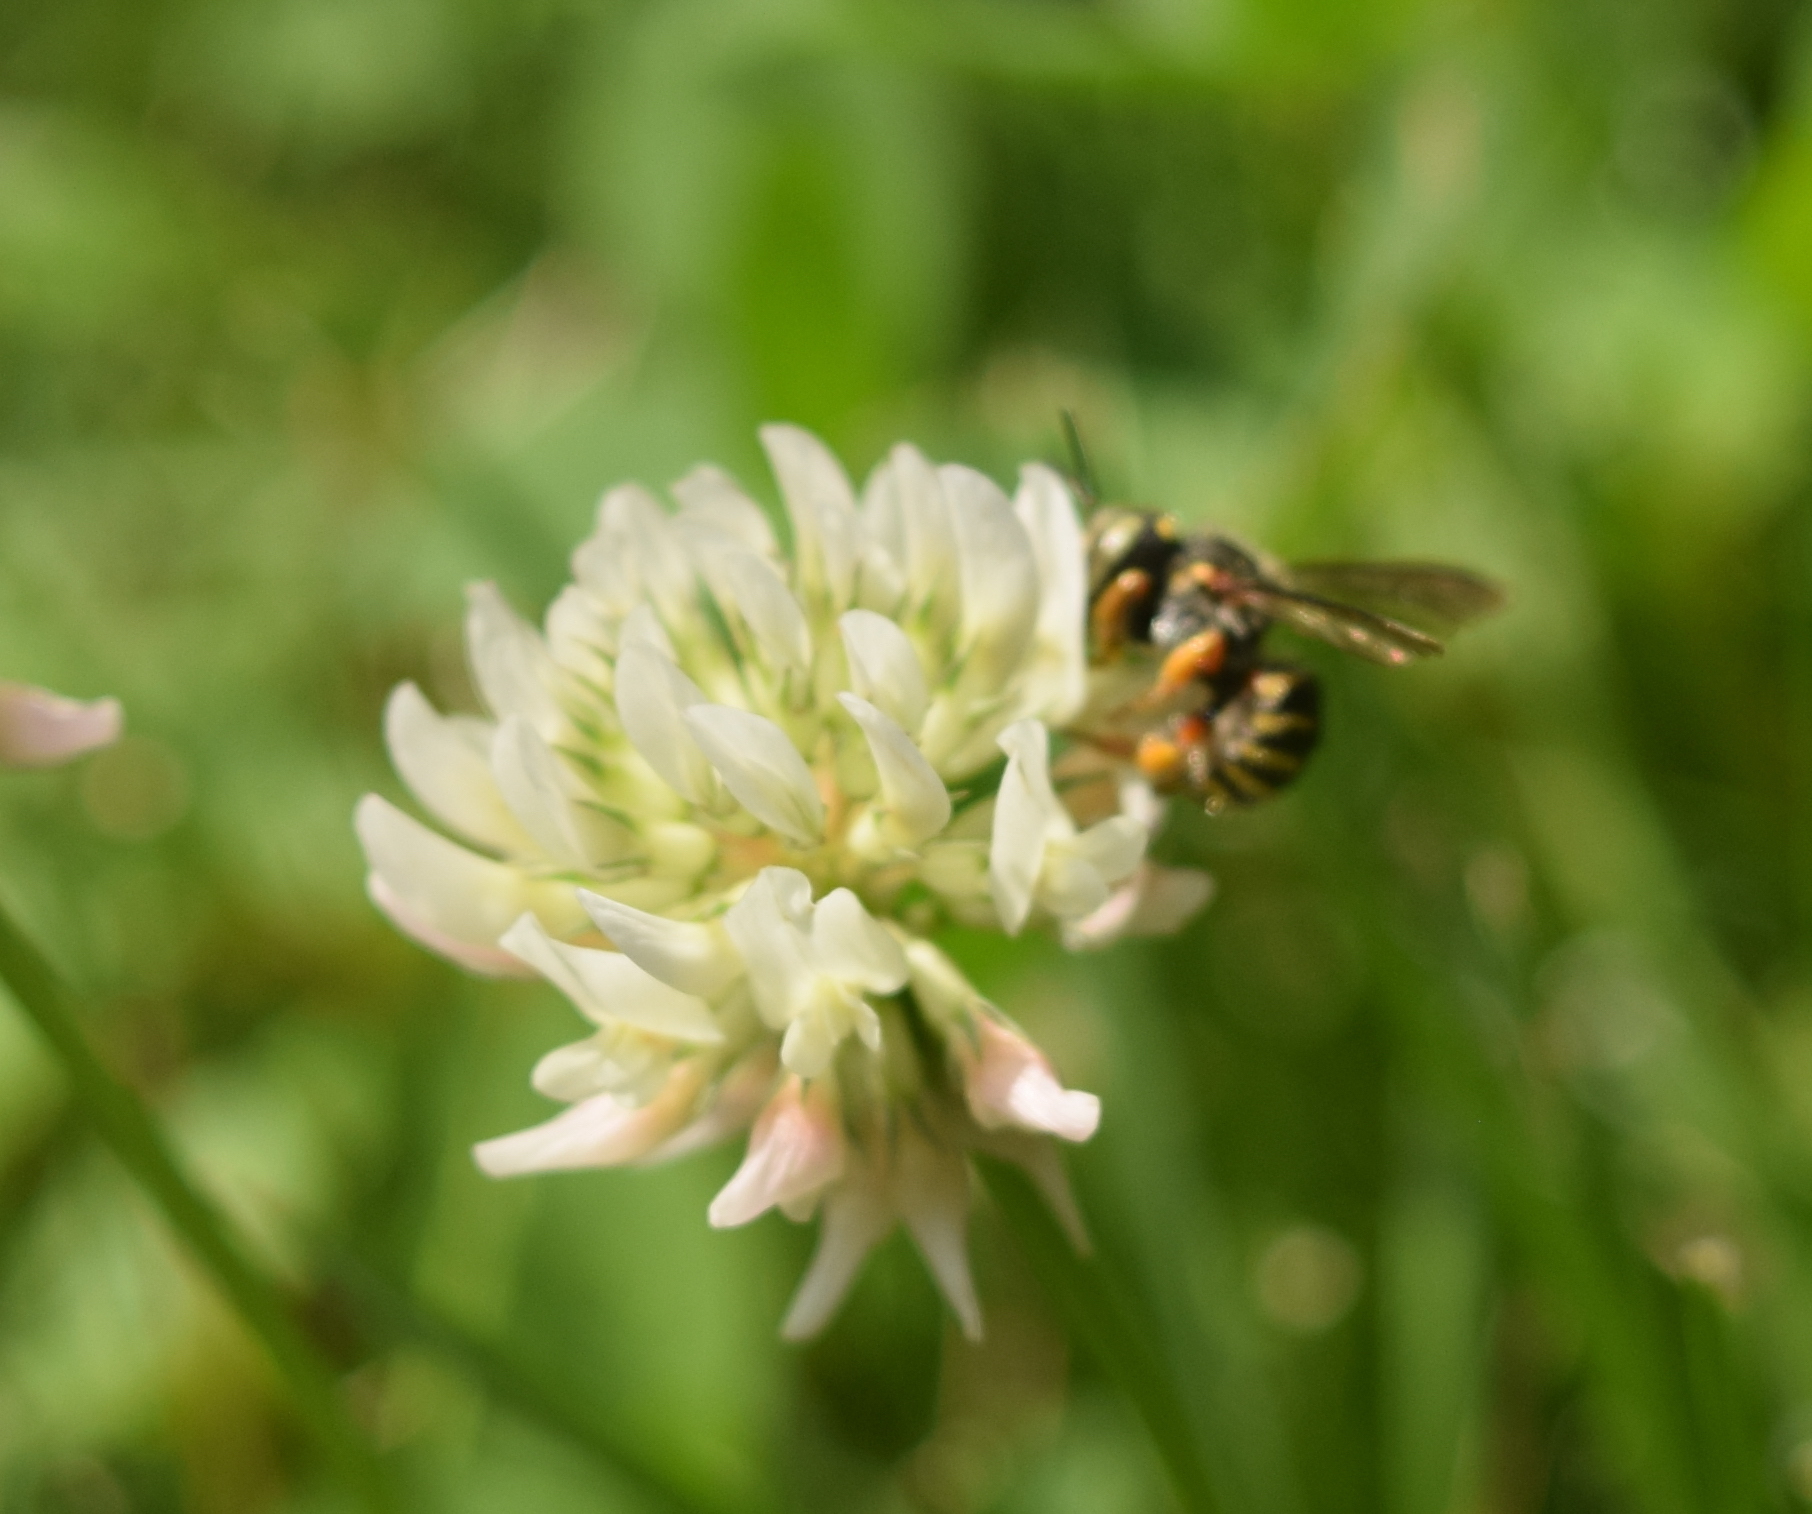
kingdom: Animalia
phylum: Arthropoda
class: Insecta
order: Hymenoptera
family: Megachilidae
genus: Anthidium
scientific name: Anthidium oblongatum
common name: Oblong wool carder bee
